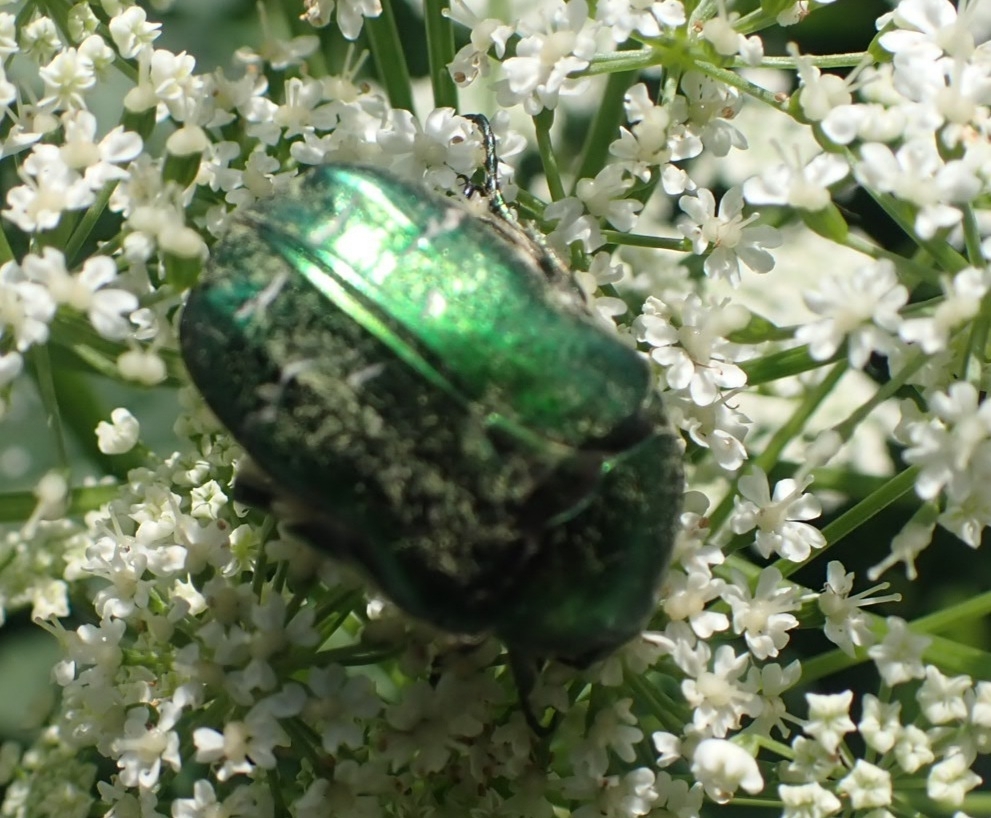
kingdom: Animalia
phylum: Arthropoda
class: Insecta
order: Coleoptera
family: Scarabaeidae
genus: Cetonia
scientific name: Cetonia aurata
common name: Rose chafer
